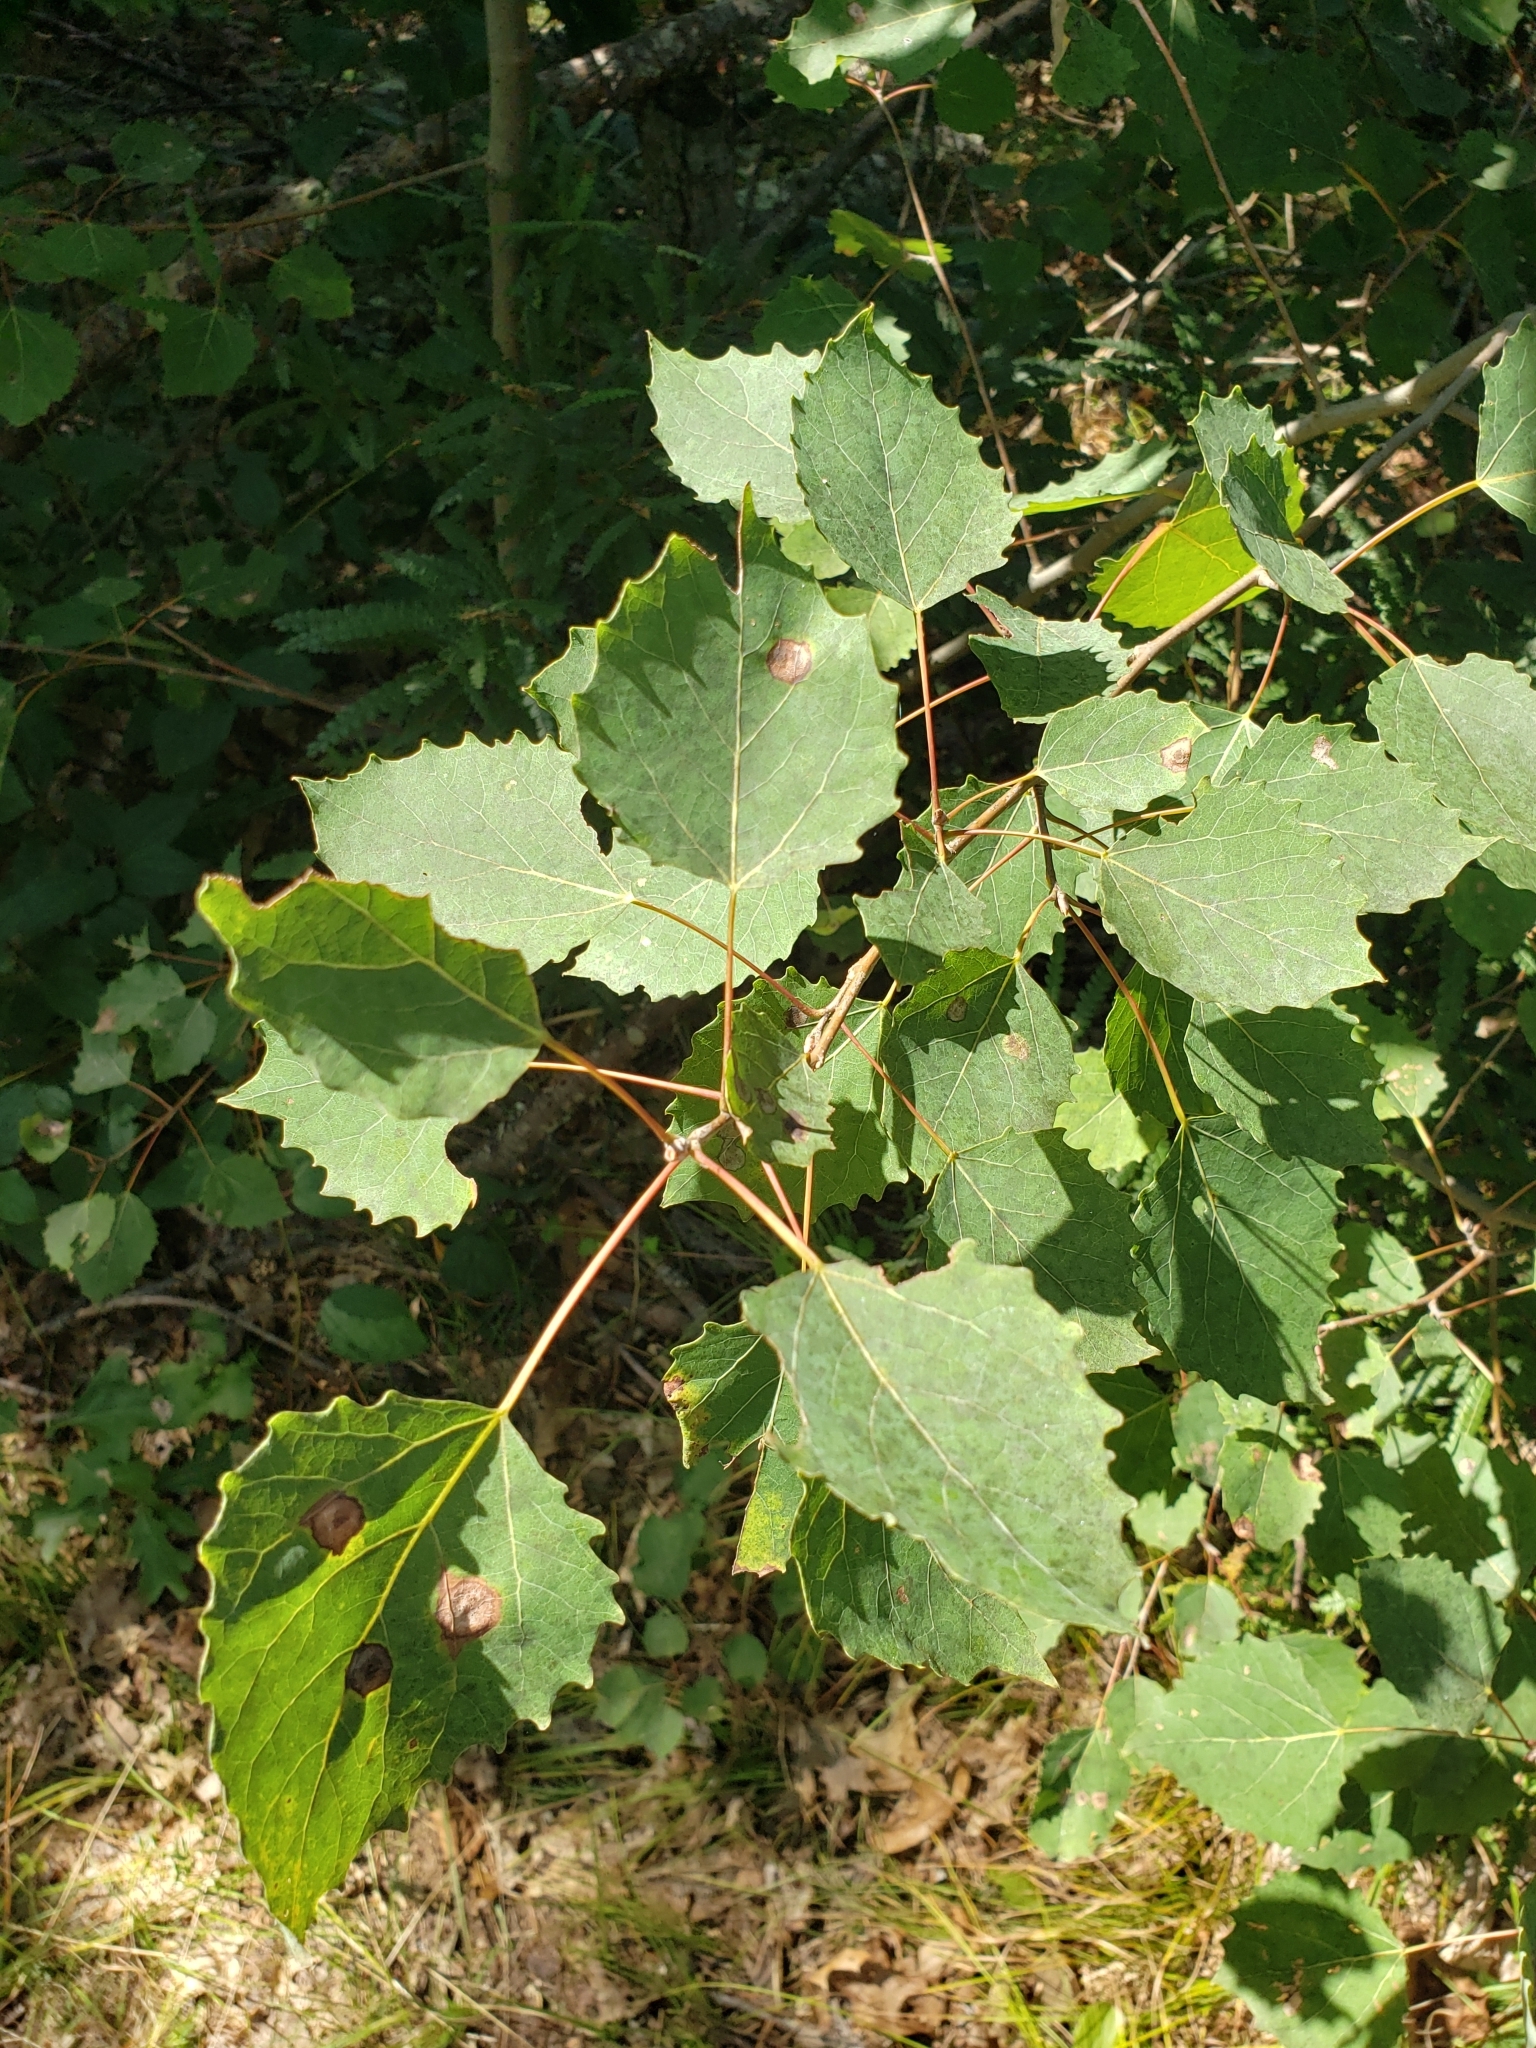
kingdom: Plantae
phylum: Tracheophyta
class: Magnoliopsida
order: Malpighiales
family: Salicaceae
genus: Populus
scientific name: Populus grandidentata
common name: Bigtooth aspen
